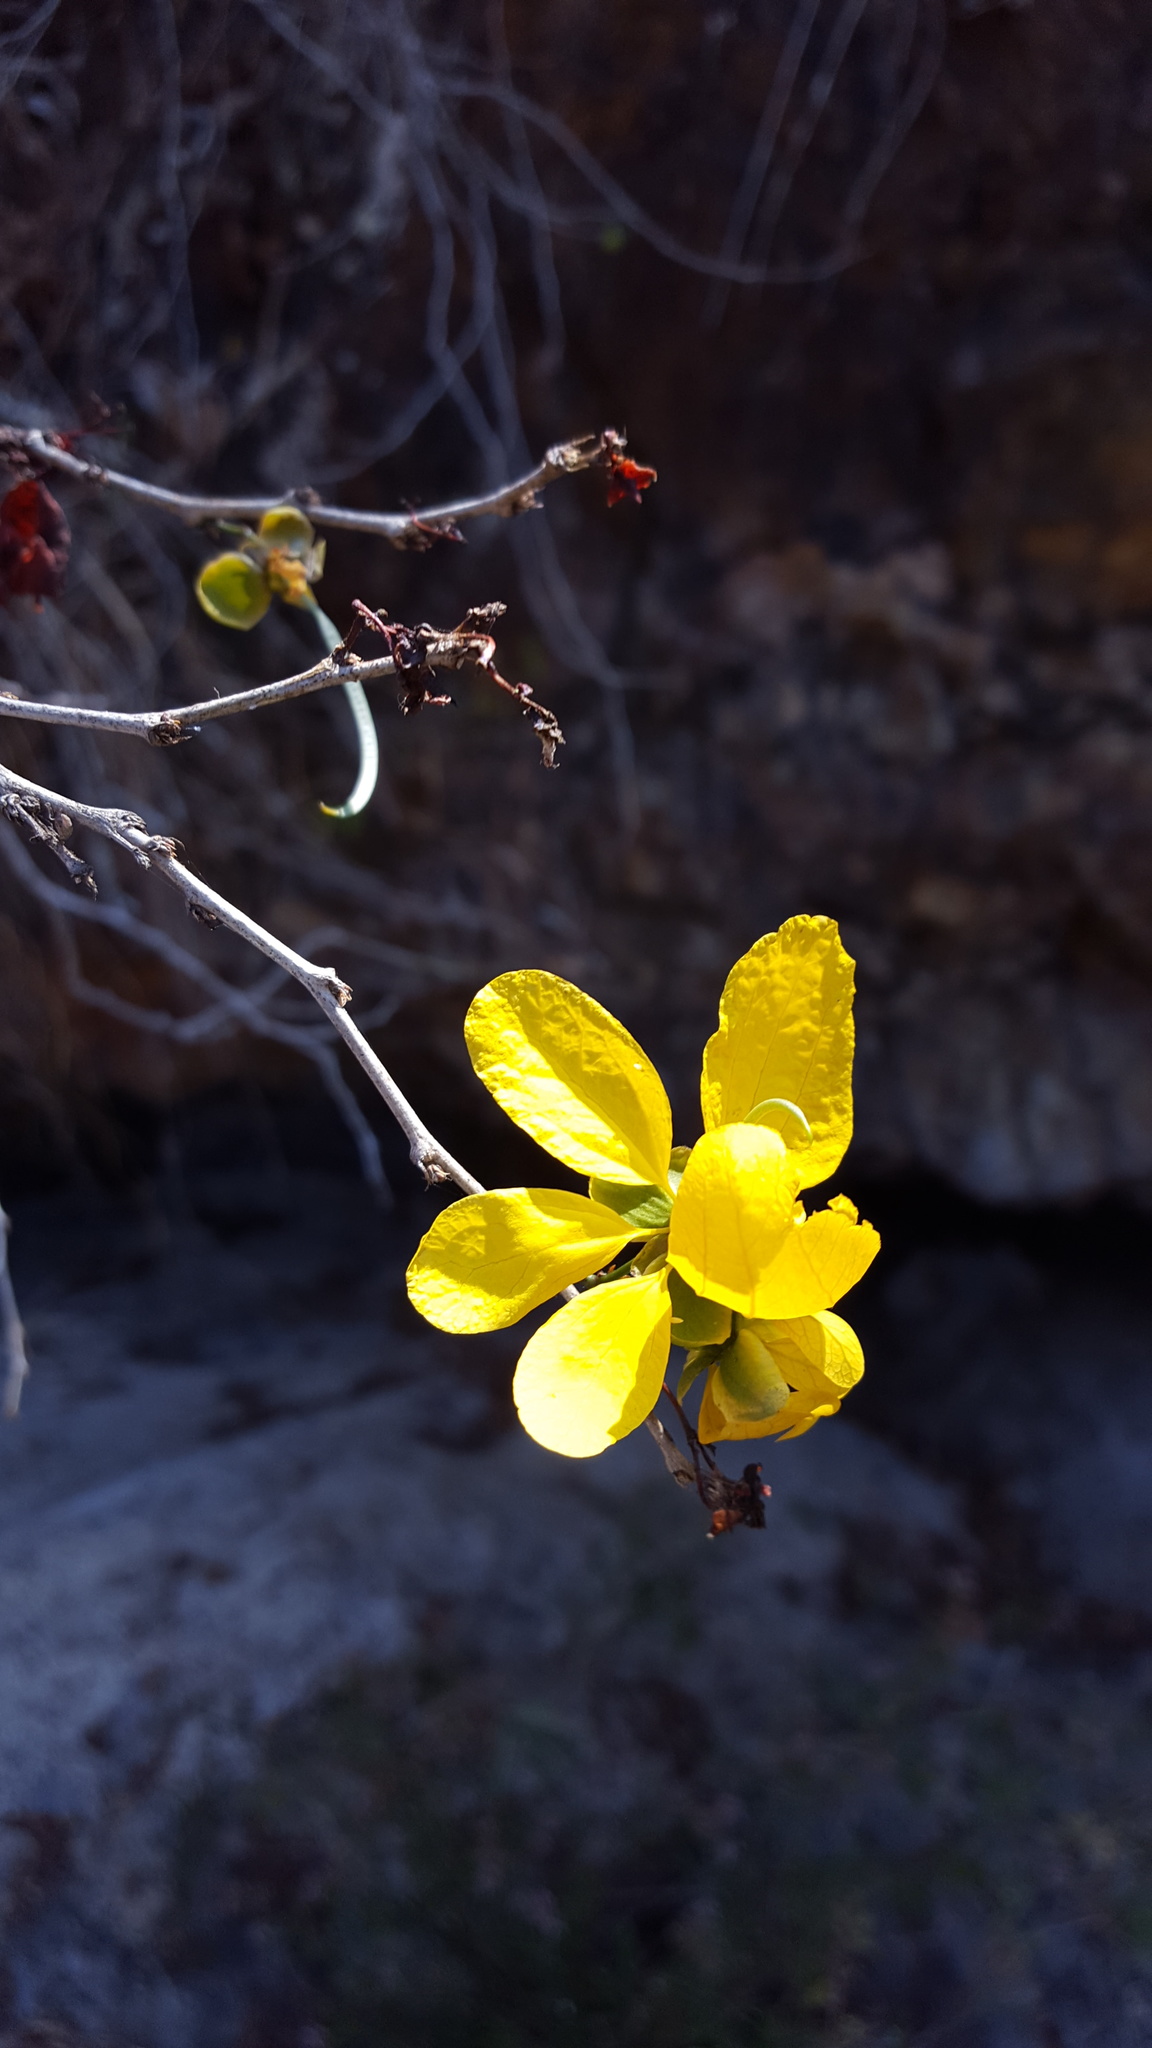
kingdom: Plantae
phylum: Tracheophyta
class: Magnoliopsida
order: Fabales
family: Fabaceae
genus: Senna
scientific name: Senna holwayana
